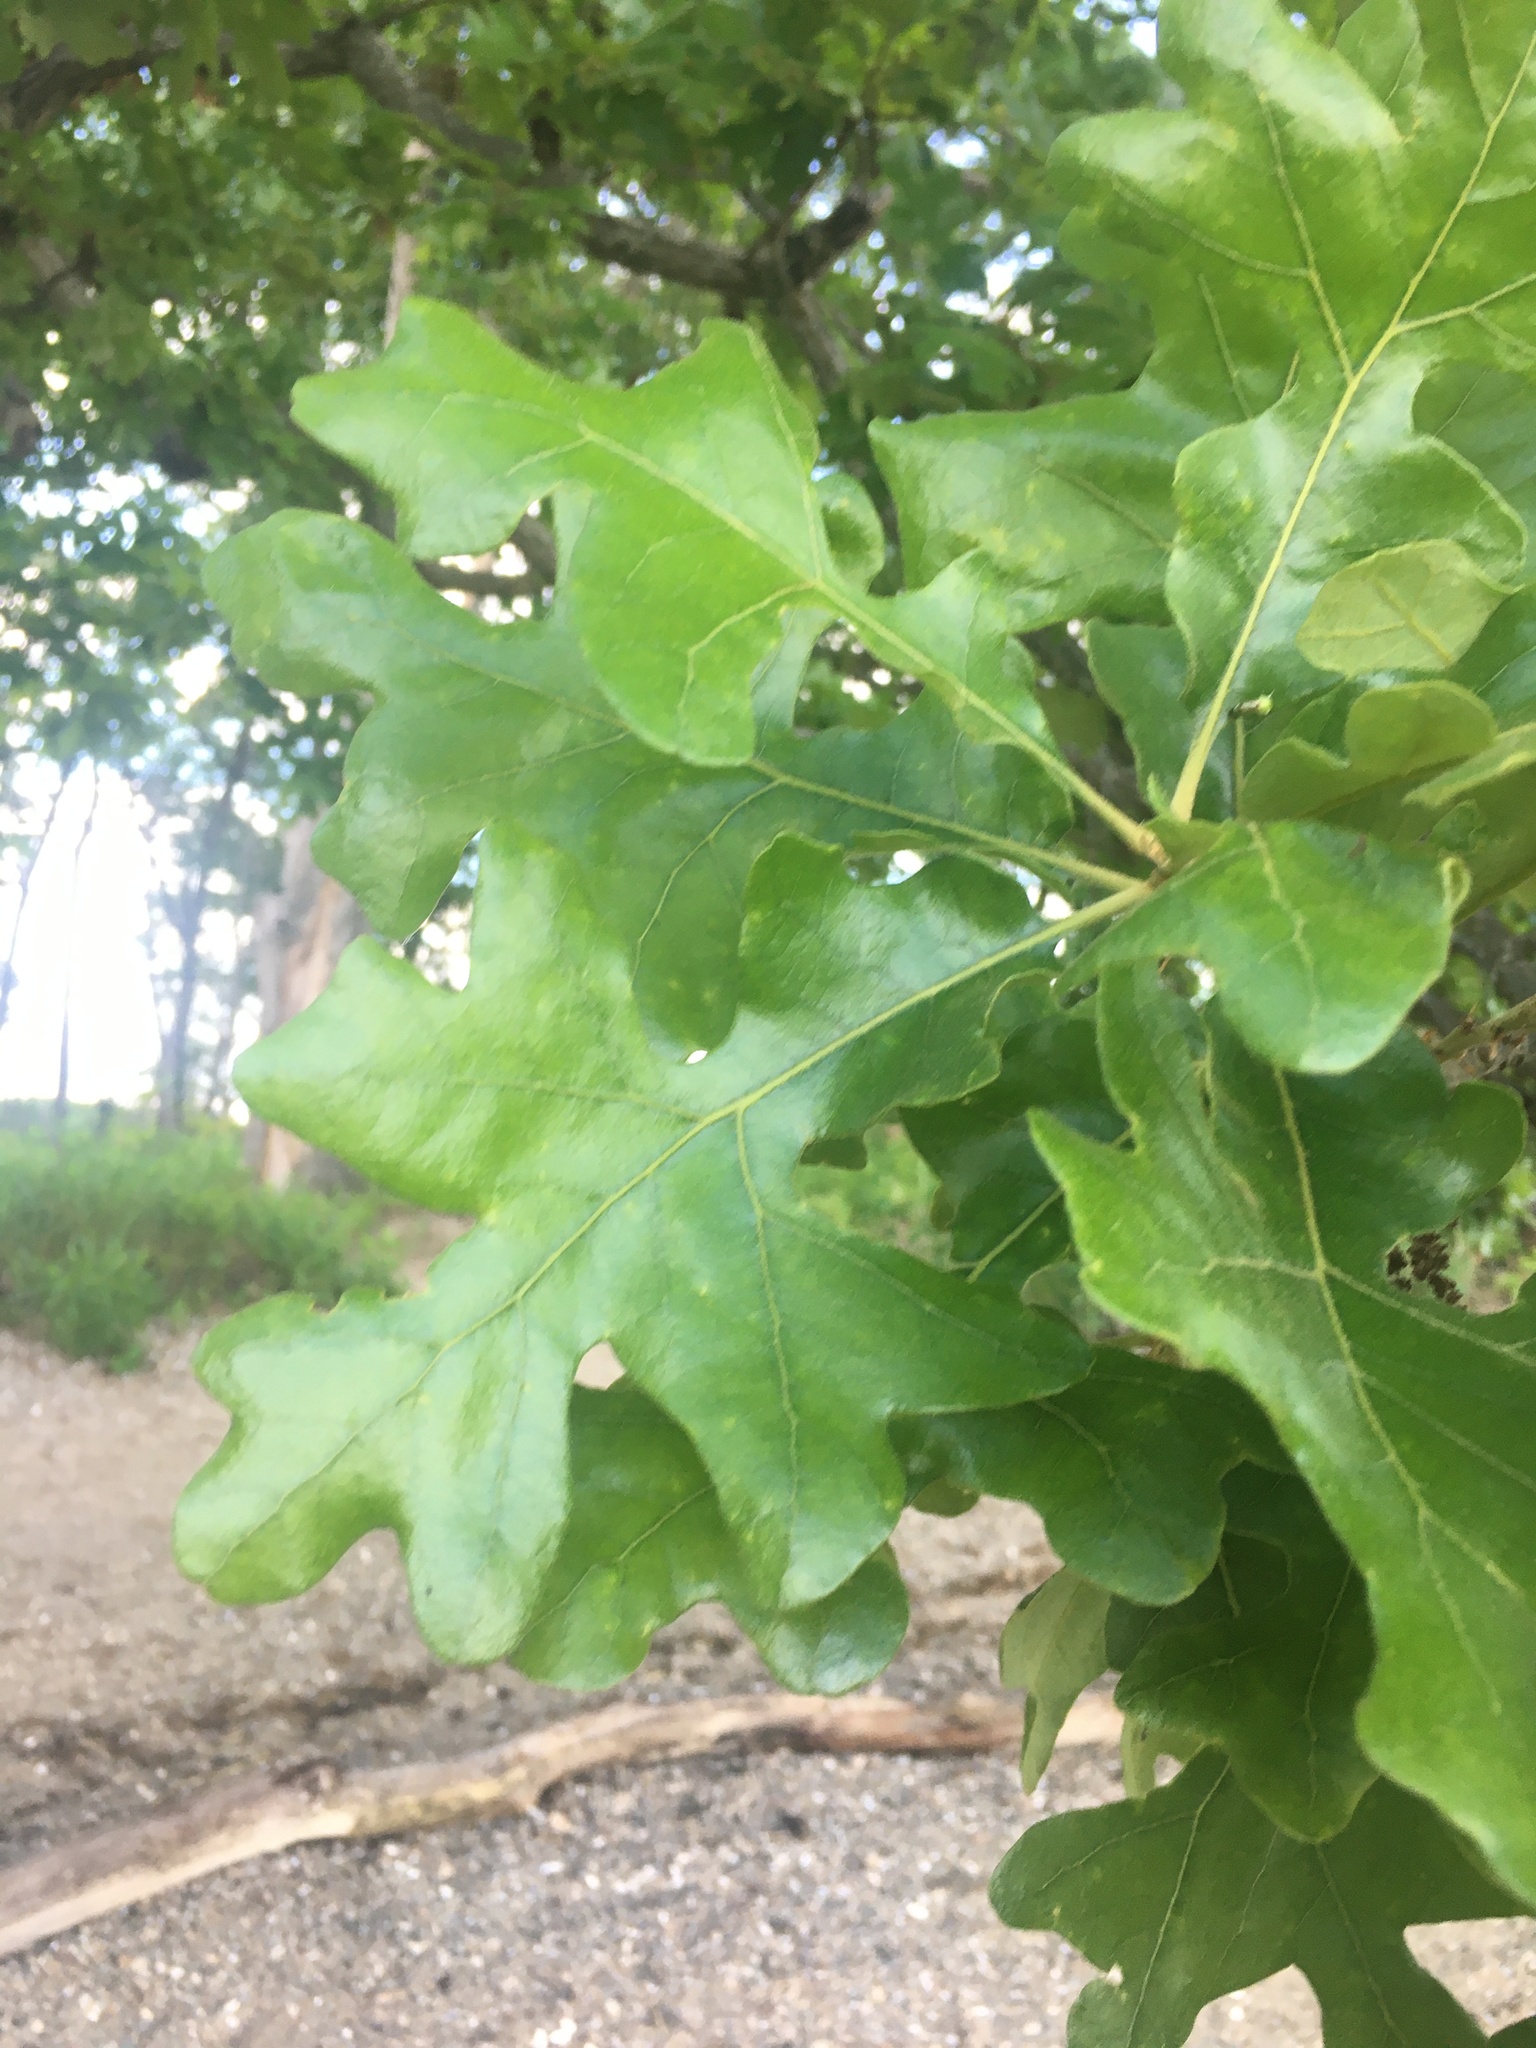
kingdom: Plantae
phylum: Tracheophyta
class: Magnoliopsida
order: Fagales
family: Fagaceae
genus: Quercus
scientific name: Quercus stellata
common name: Post oak
